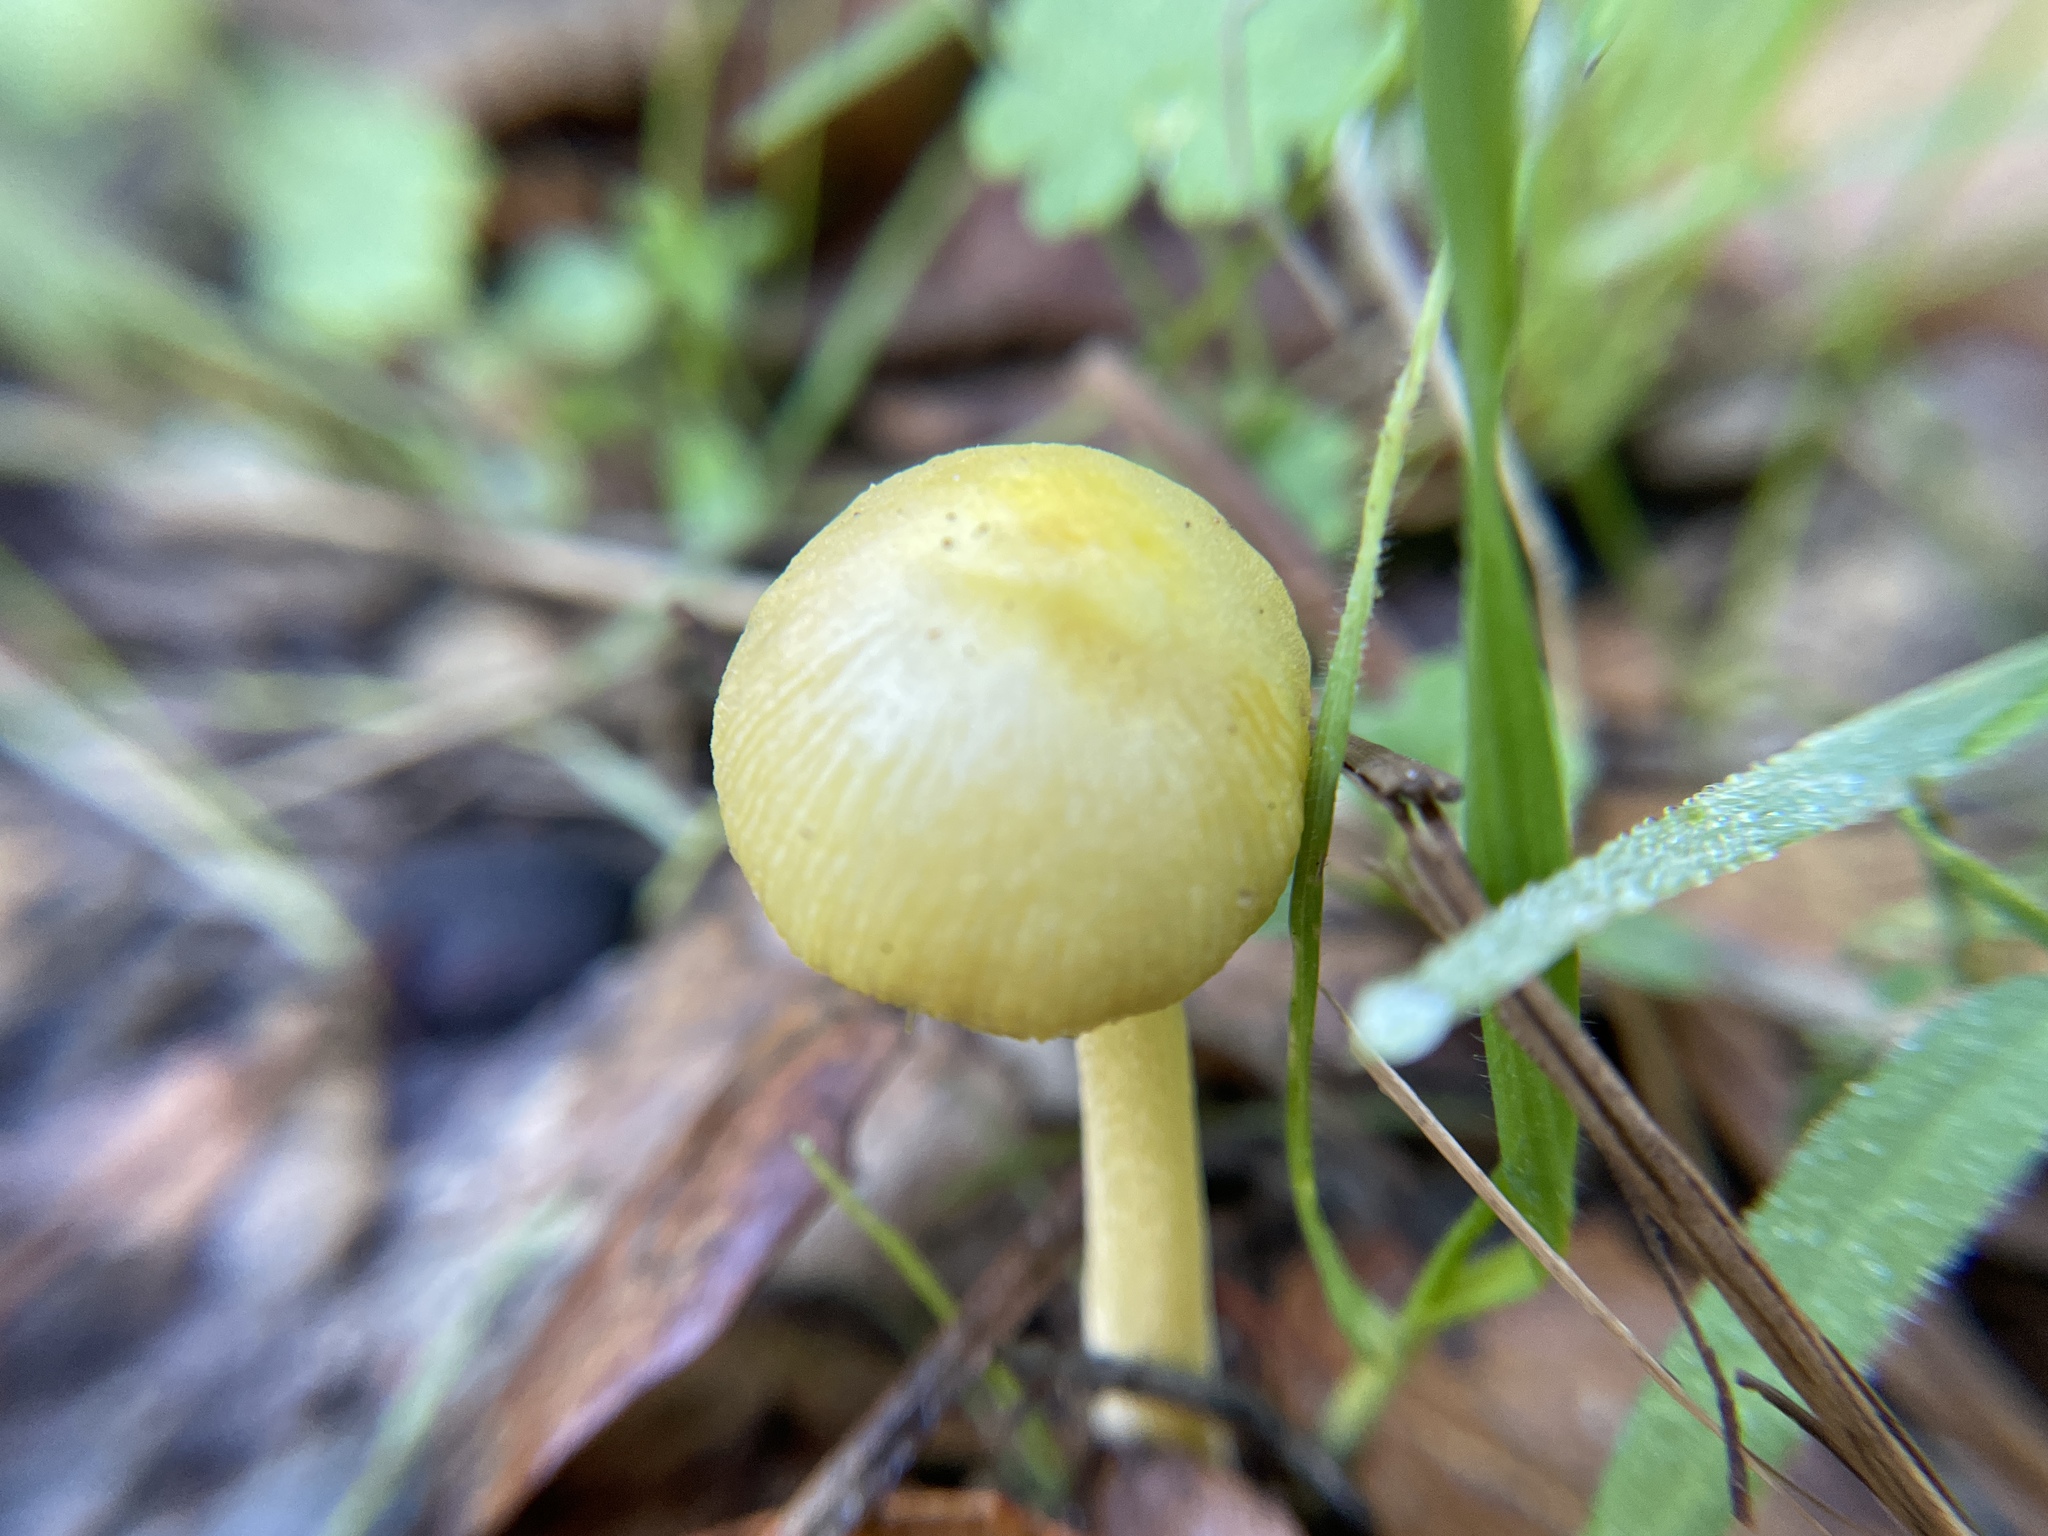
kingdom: Fungi
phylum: Basidiomycota
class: Agaricomycetes
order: Agaricales
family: Bolbitiaceae
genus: Bolbitius
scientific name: Bolbitius titubans
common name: Yellow fieldcap
